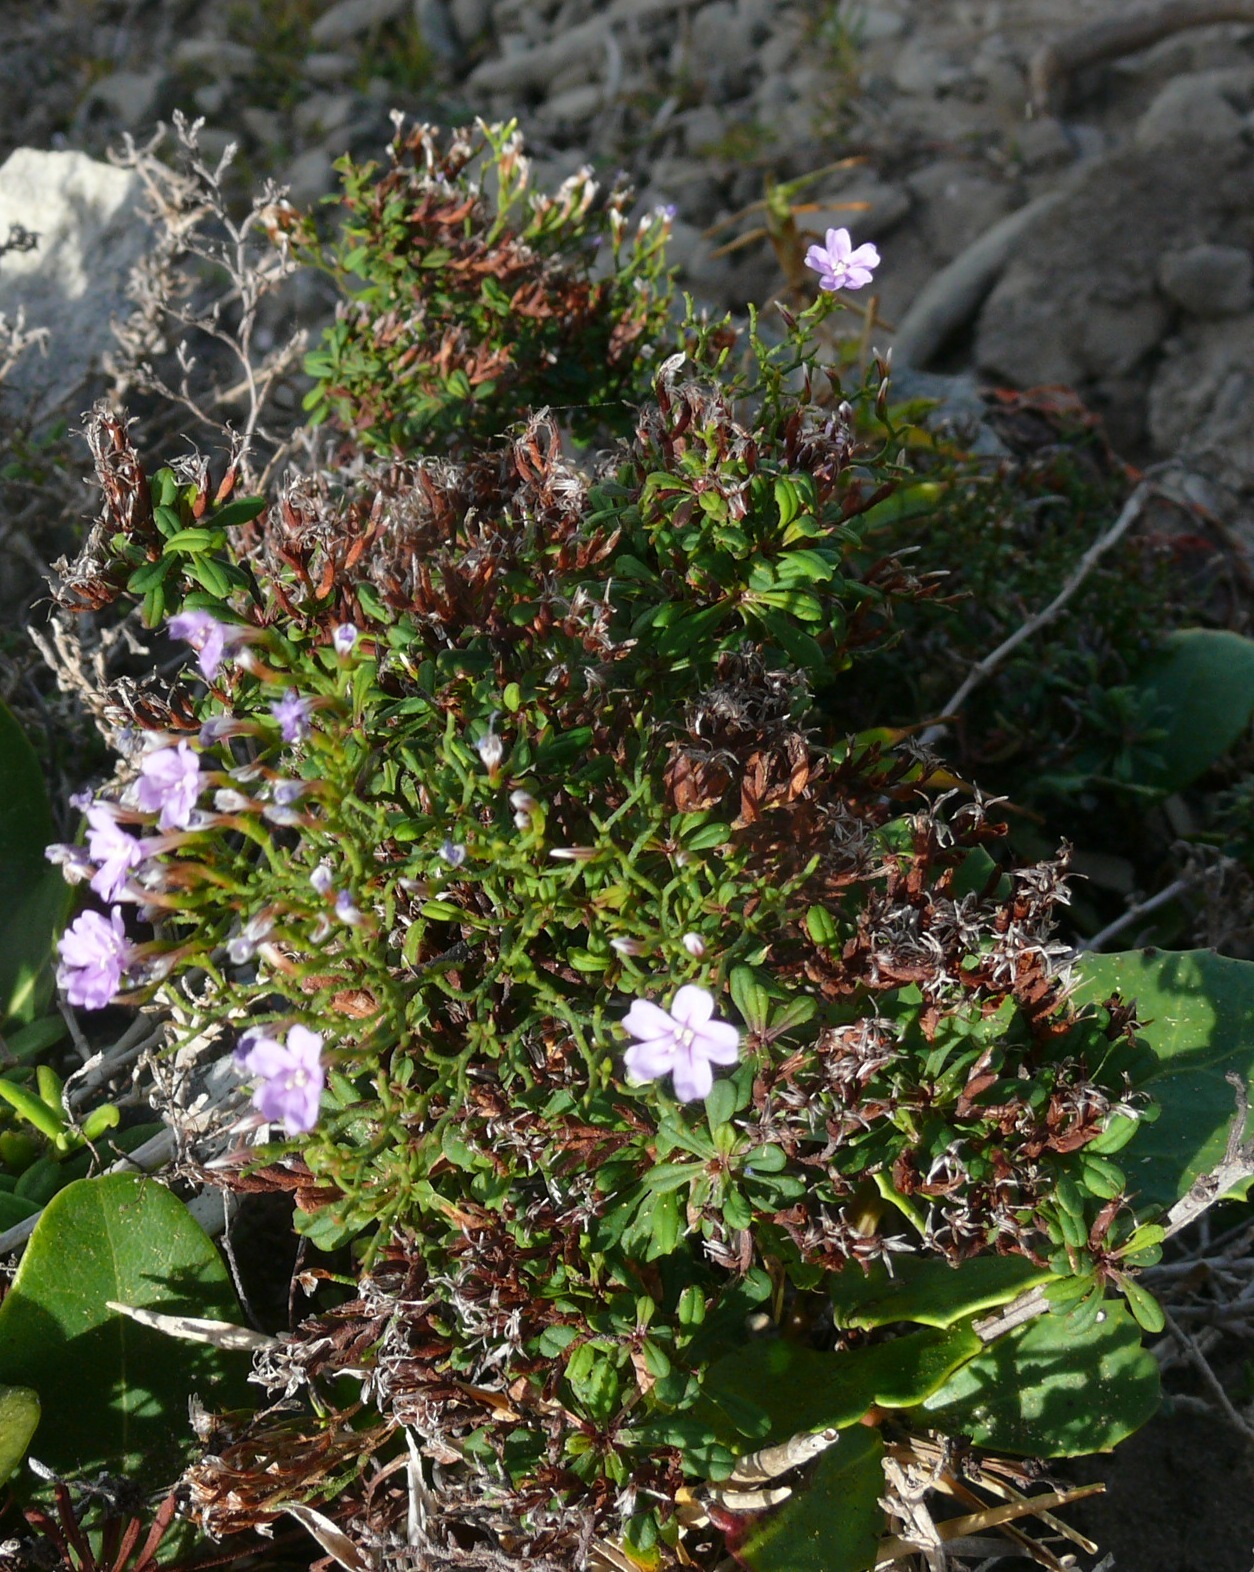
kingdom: Plantae
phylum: Tracheophyta
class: Magnoliopsida
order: Caryophyllales
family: Plumbaginaceae
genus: Limonium
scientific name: Limonium scabrum
